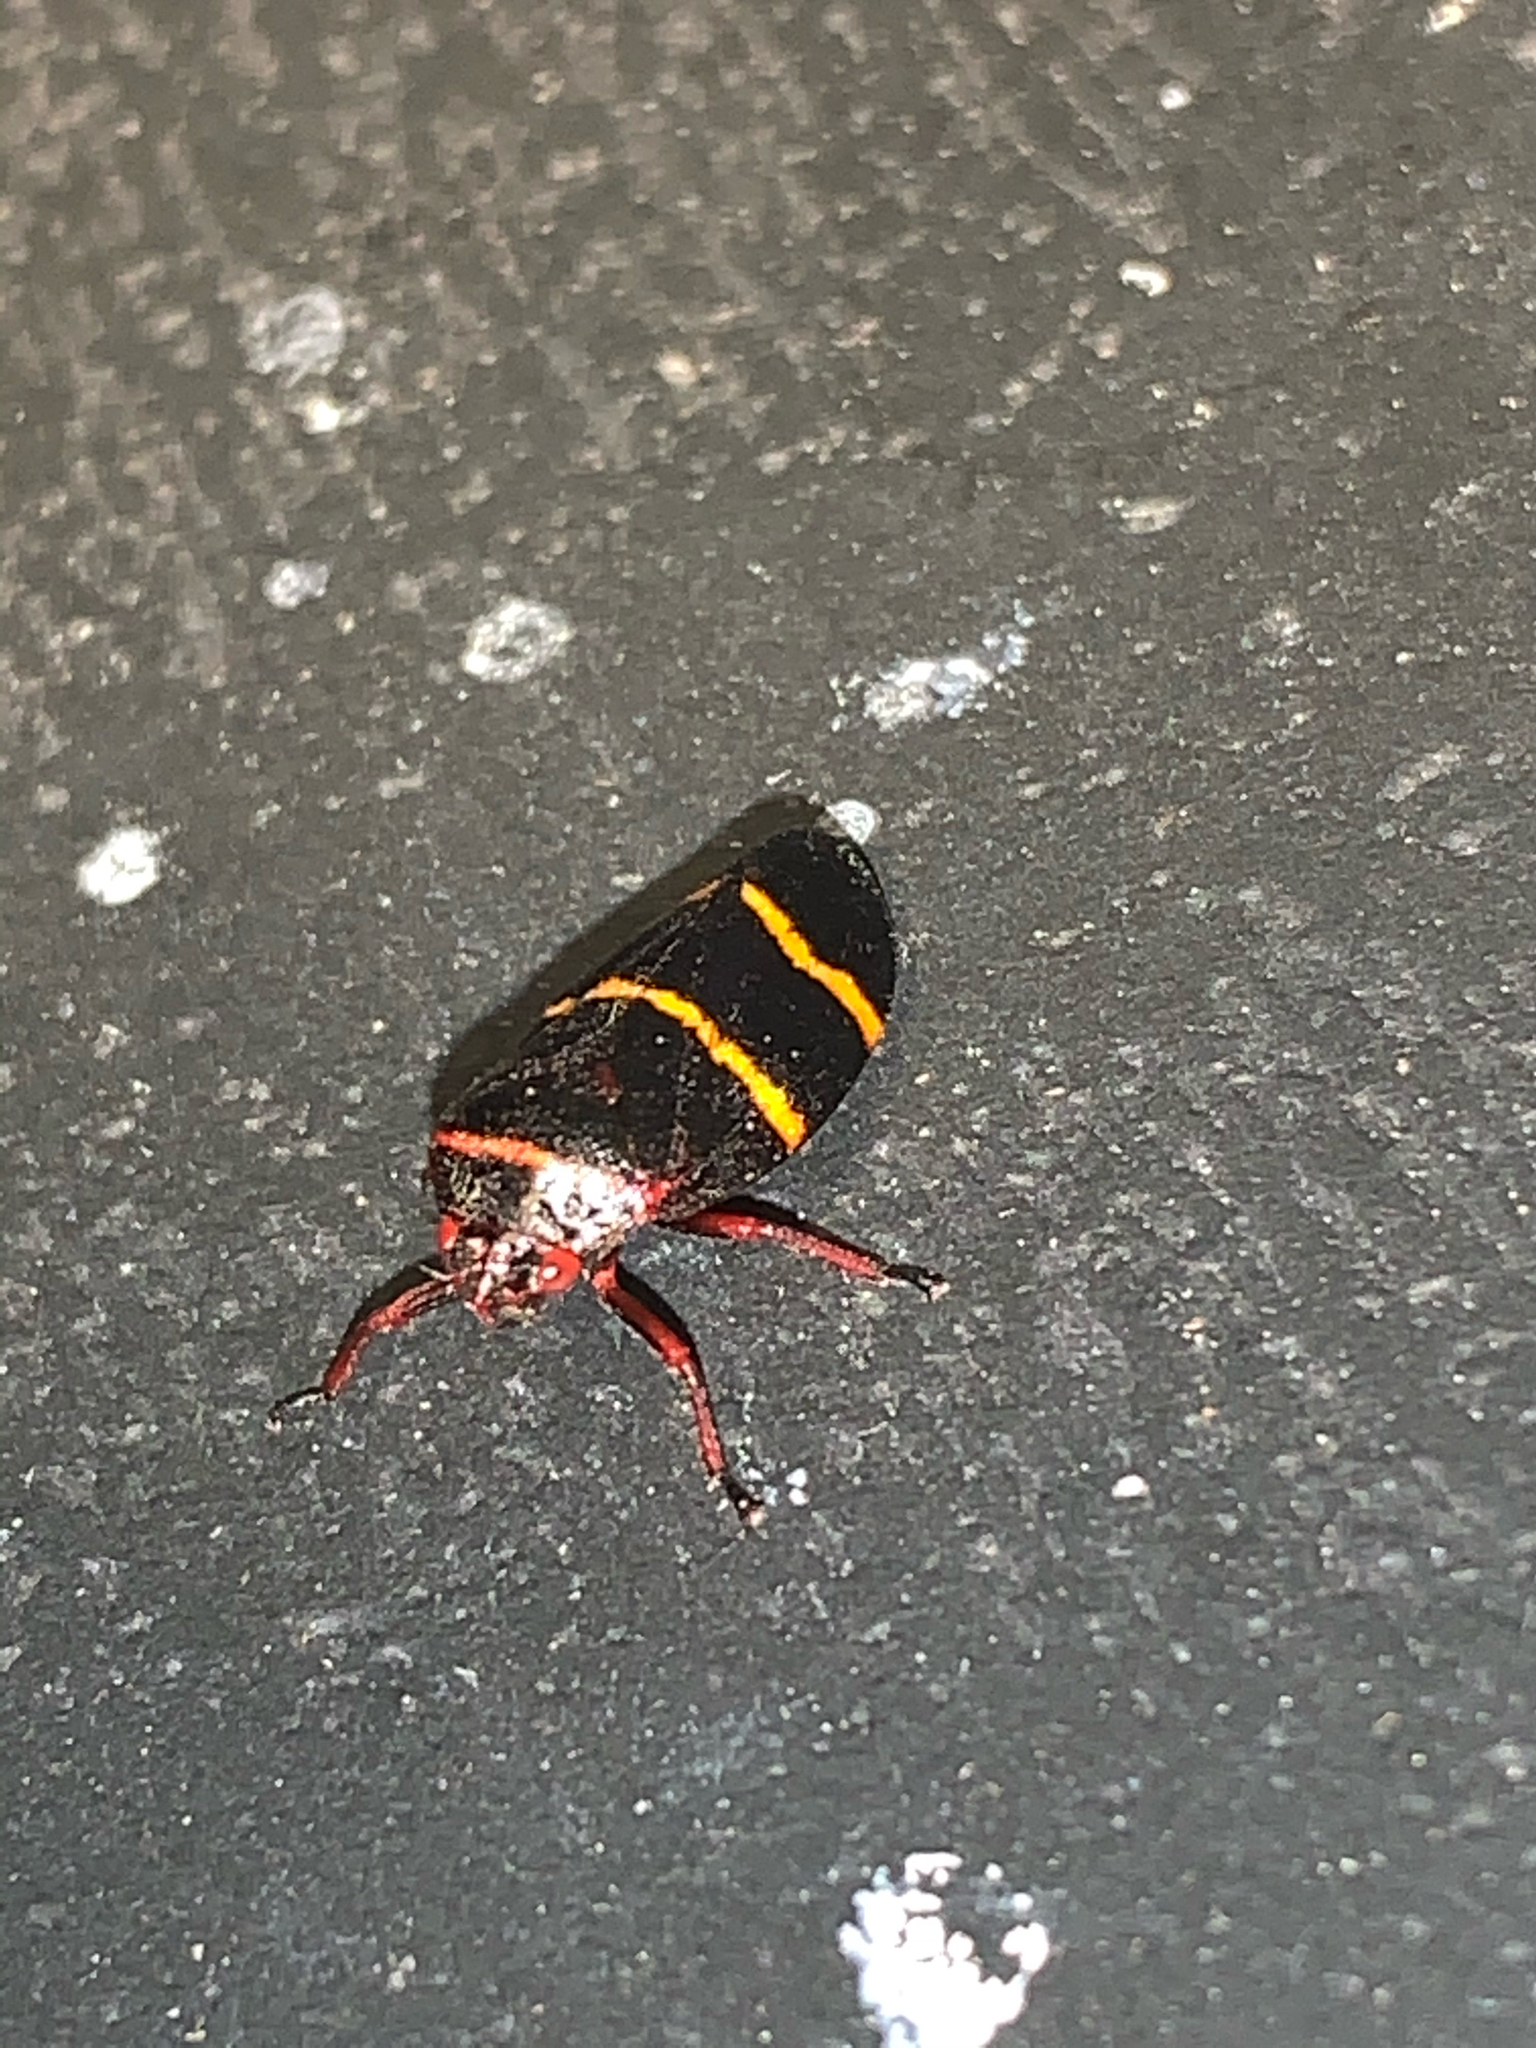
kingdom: Animalia
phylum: Arthropoda
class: Insecta
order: Hemiptera
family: Cercopidae
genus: Prosapia
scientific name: Prosapia bicincta
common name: Twolined spittlebug
